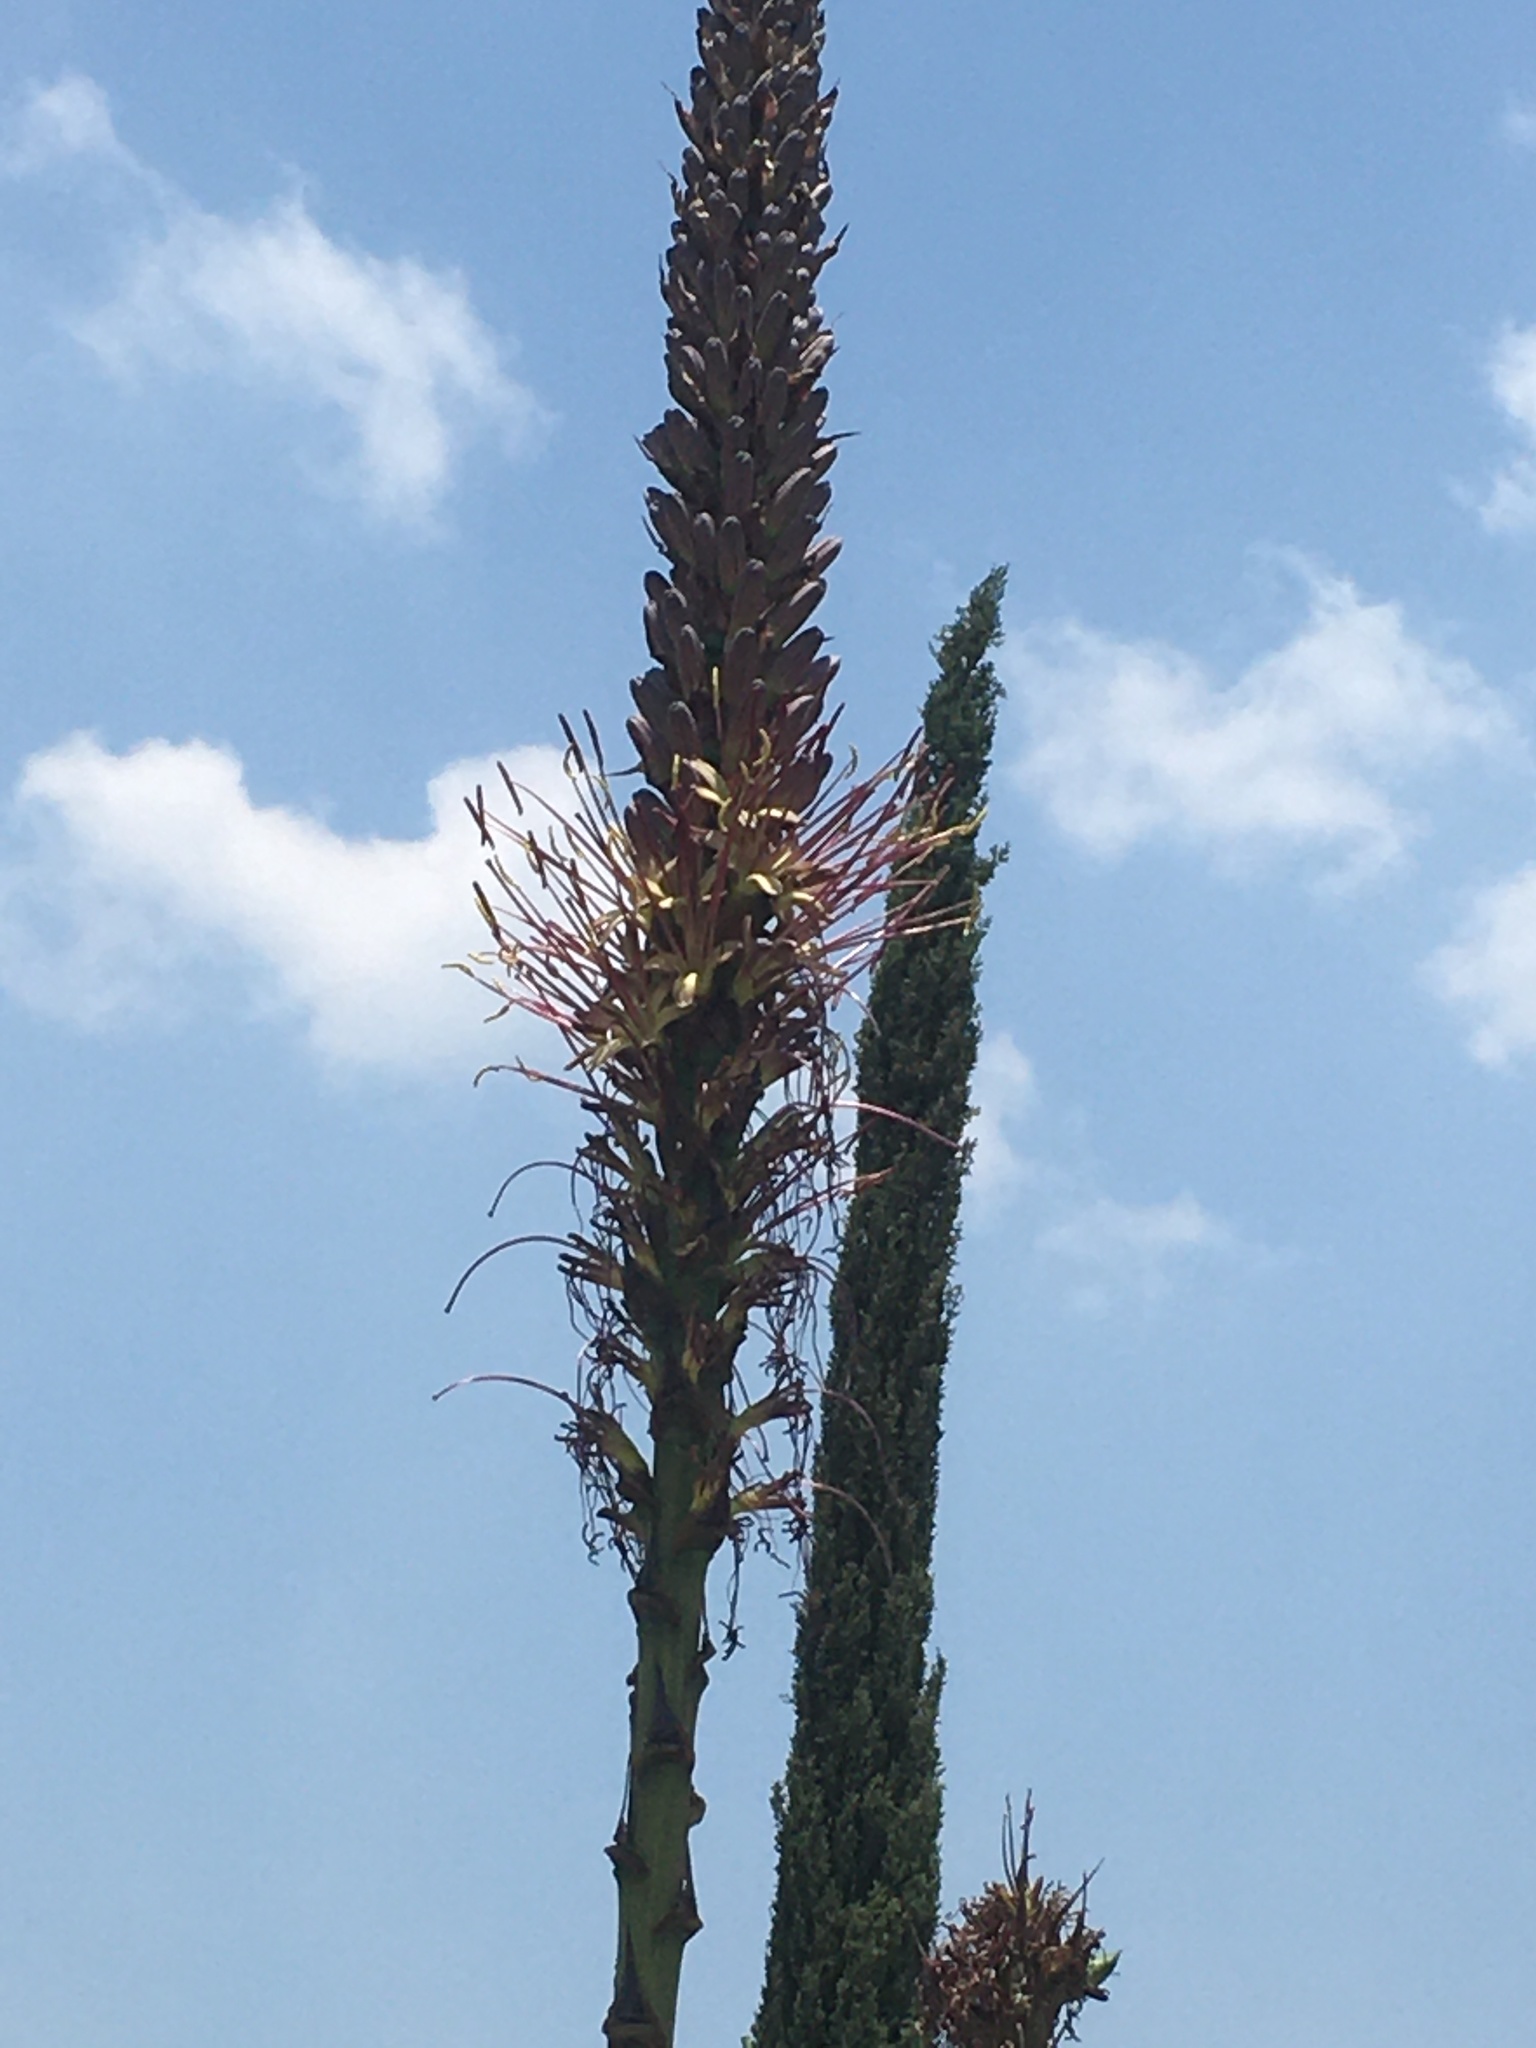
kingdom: Plantae
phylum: Tracheophyta
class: Liliopsida
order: Asparagales
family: Asparagaceae
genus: Agave
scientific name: Agave chiapensis
